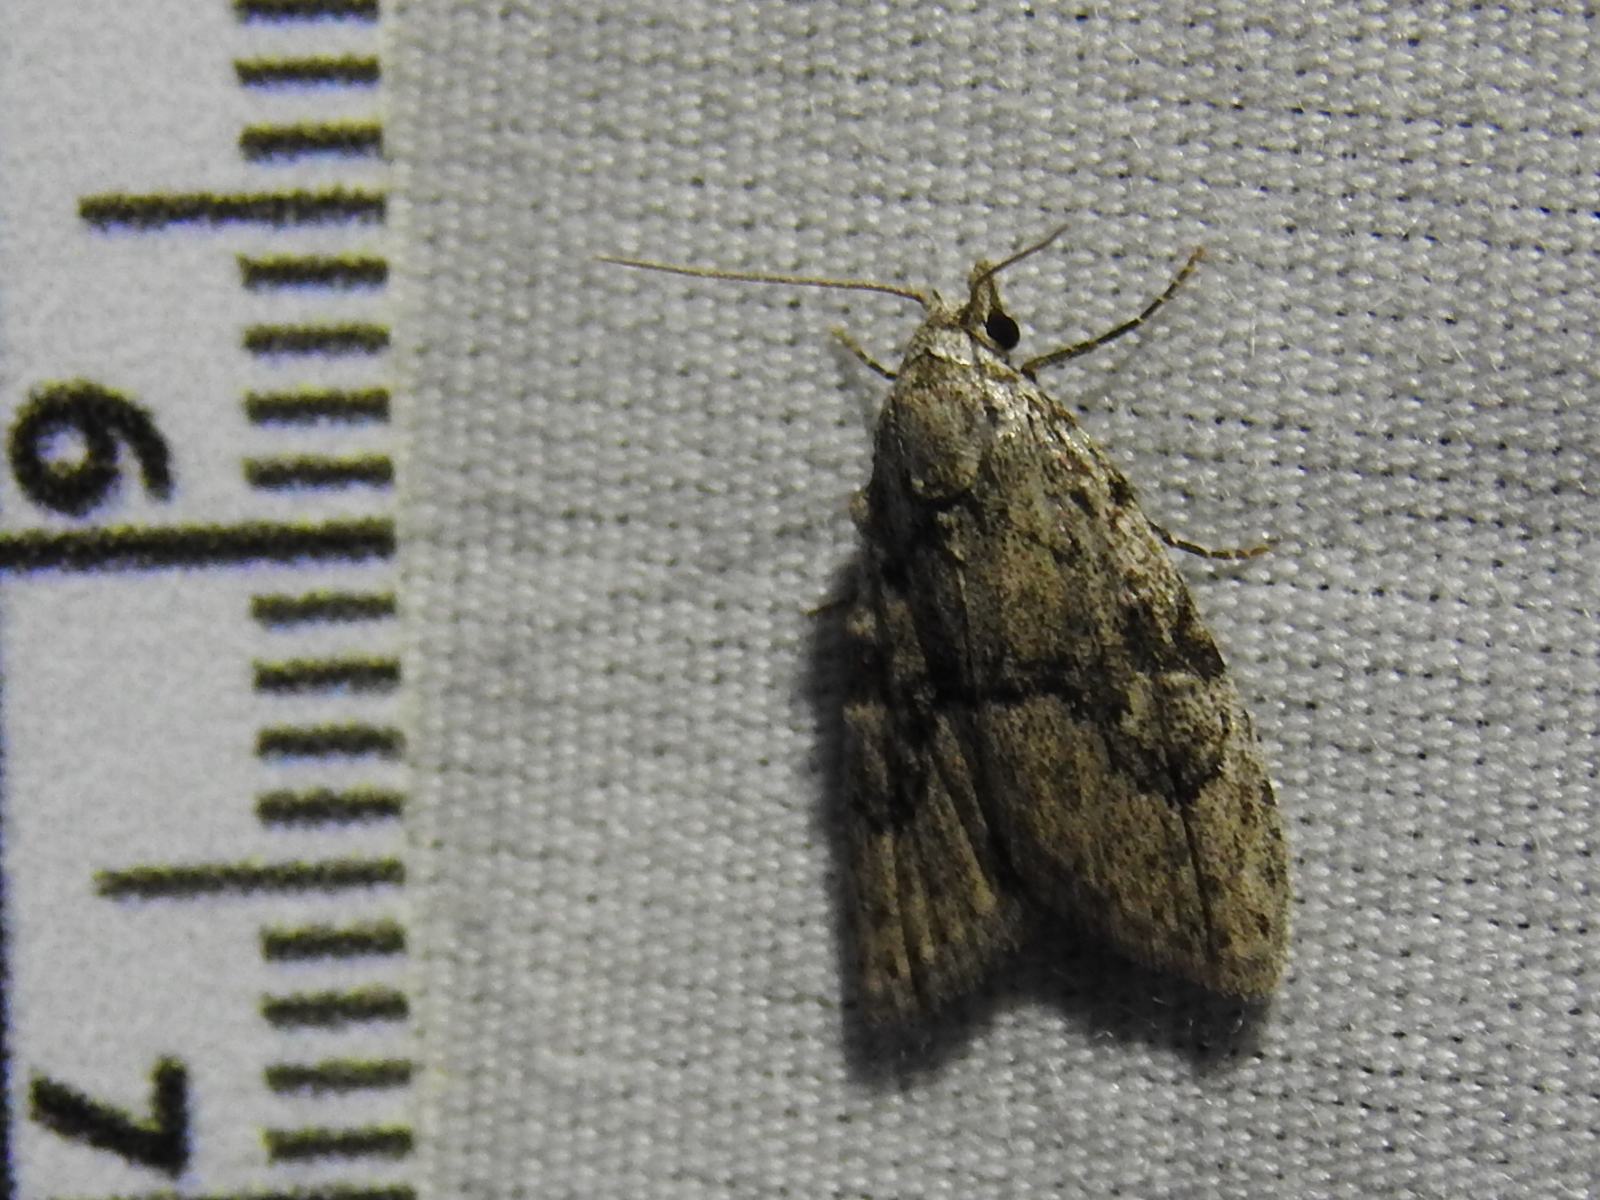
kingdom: Animalia
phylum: Arthropoda
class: Insecta
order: Lepidoptera
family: Nolidae
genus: Meganola
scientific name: Meganola minuscula
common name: Confused meganola moth
